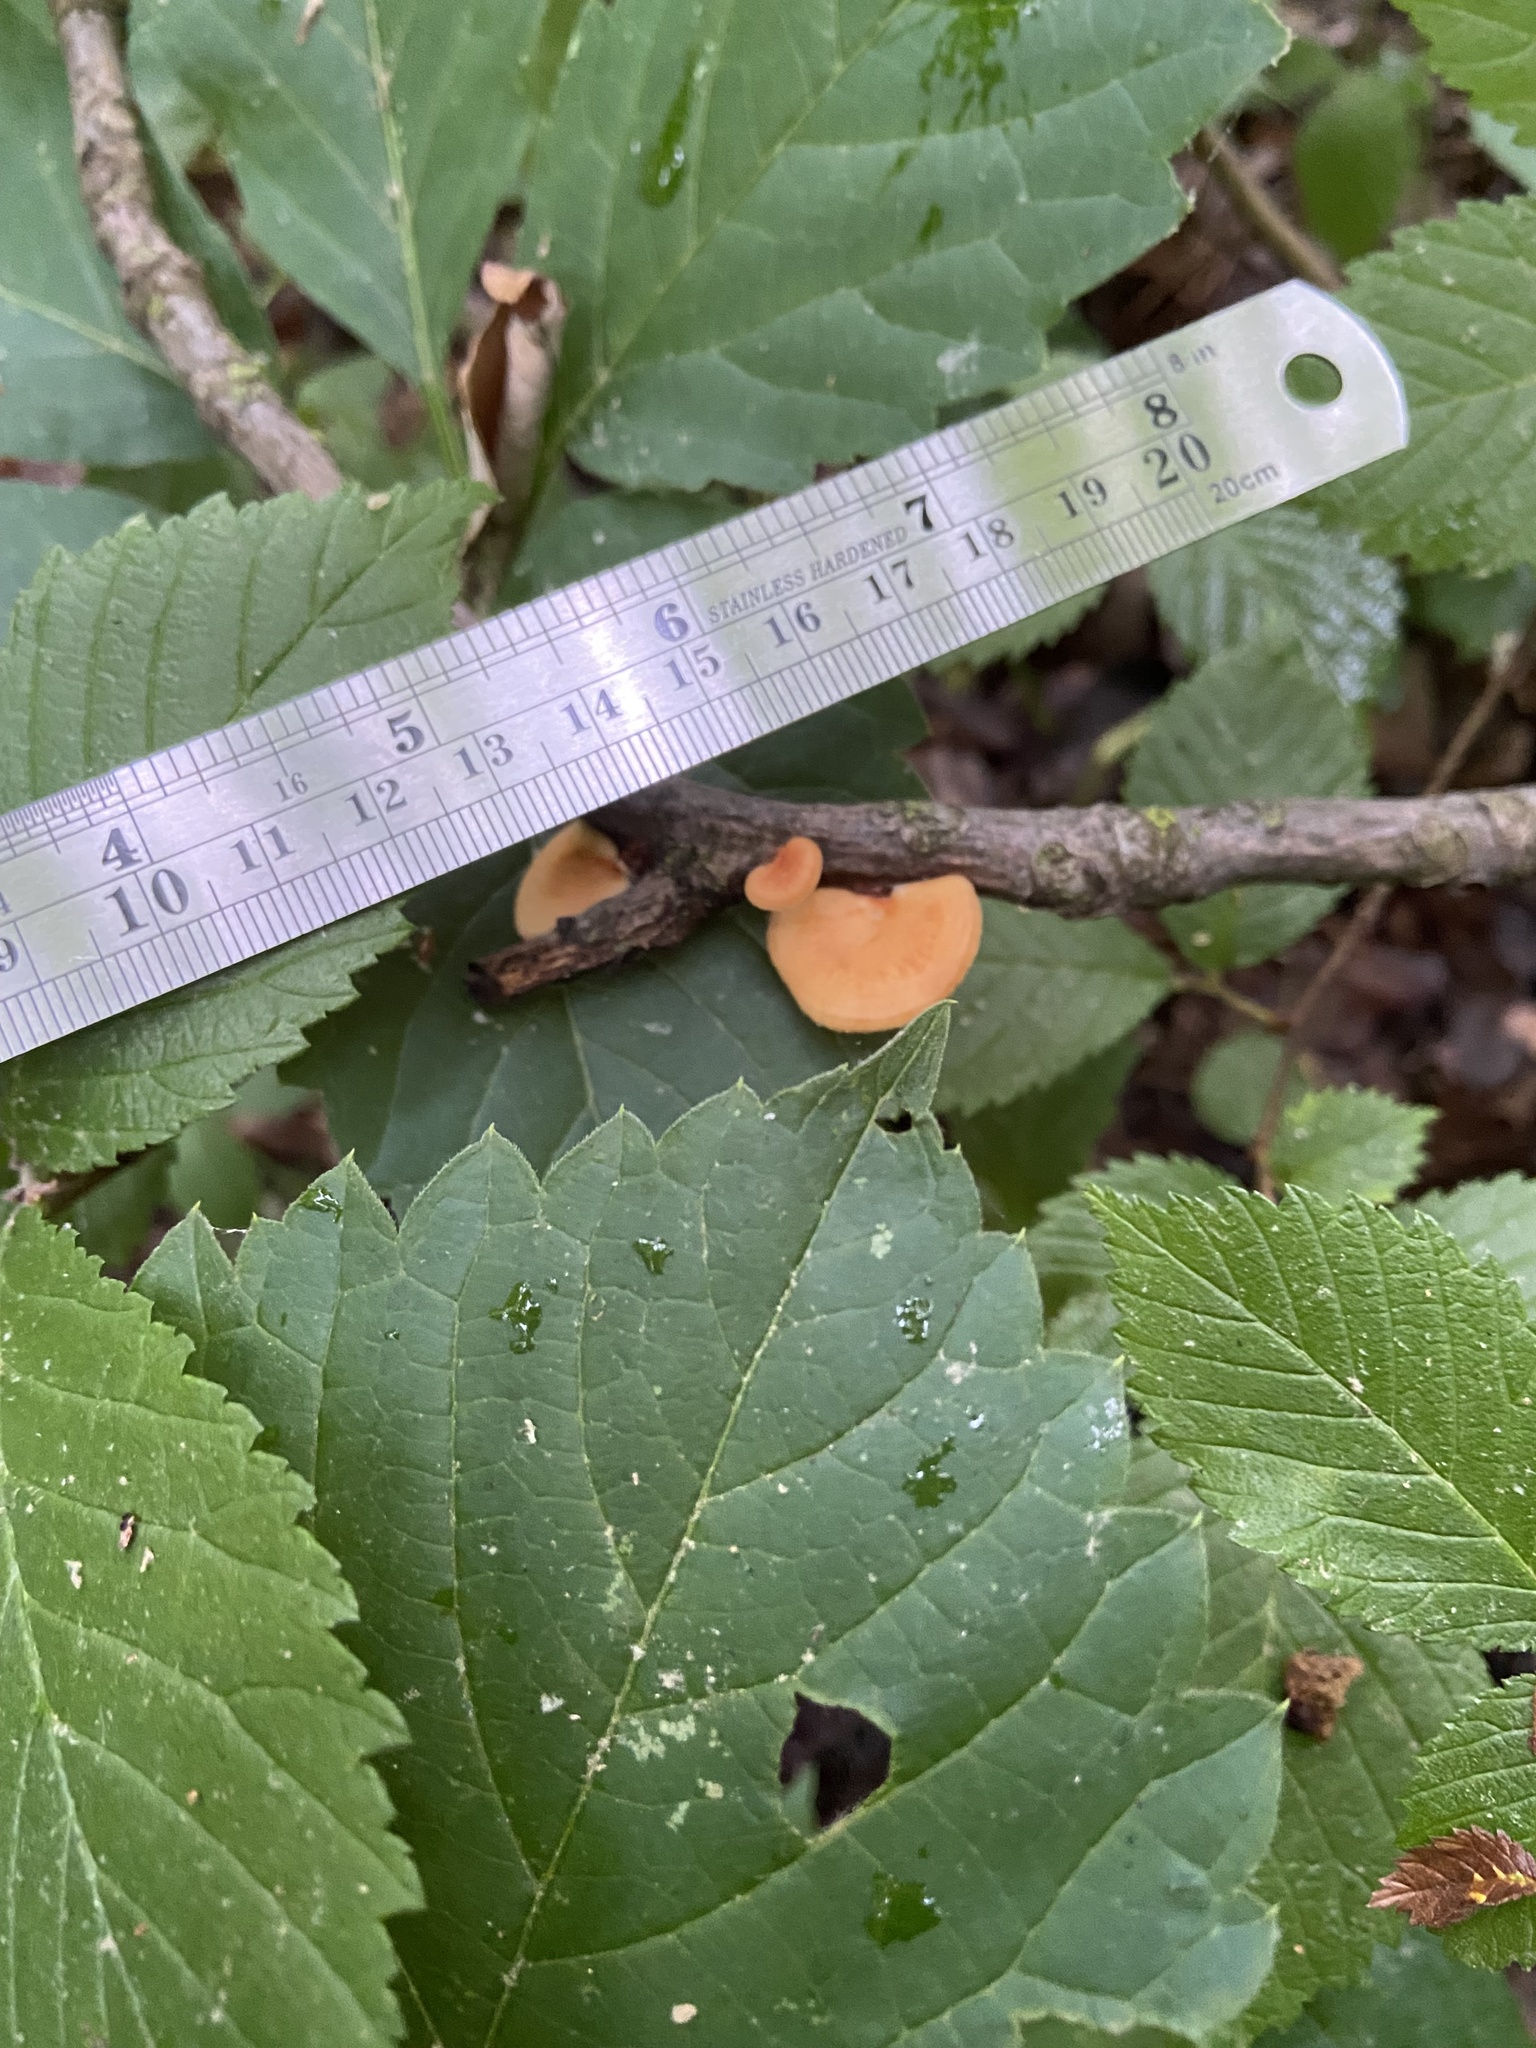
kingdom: Fungi
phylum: Basidiomycota
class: Agaricomycetes
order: Polyporales
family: Polyporaceae
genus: Neofavolus
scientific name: Neofavolus alveolaris
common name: Hexagonal-pored polypore
